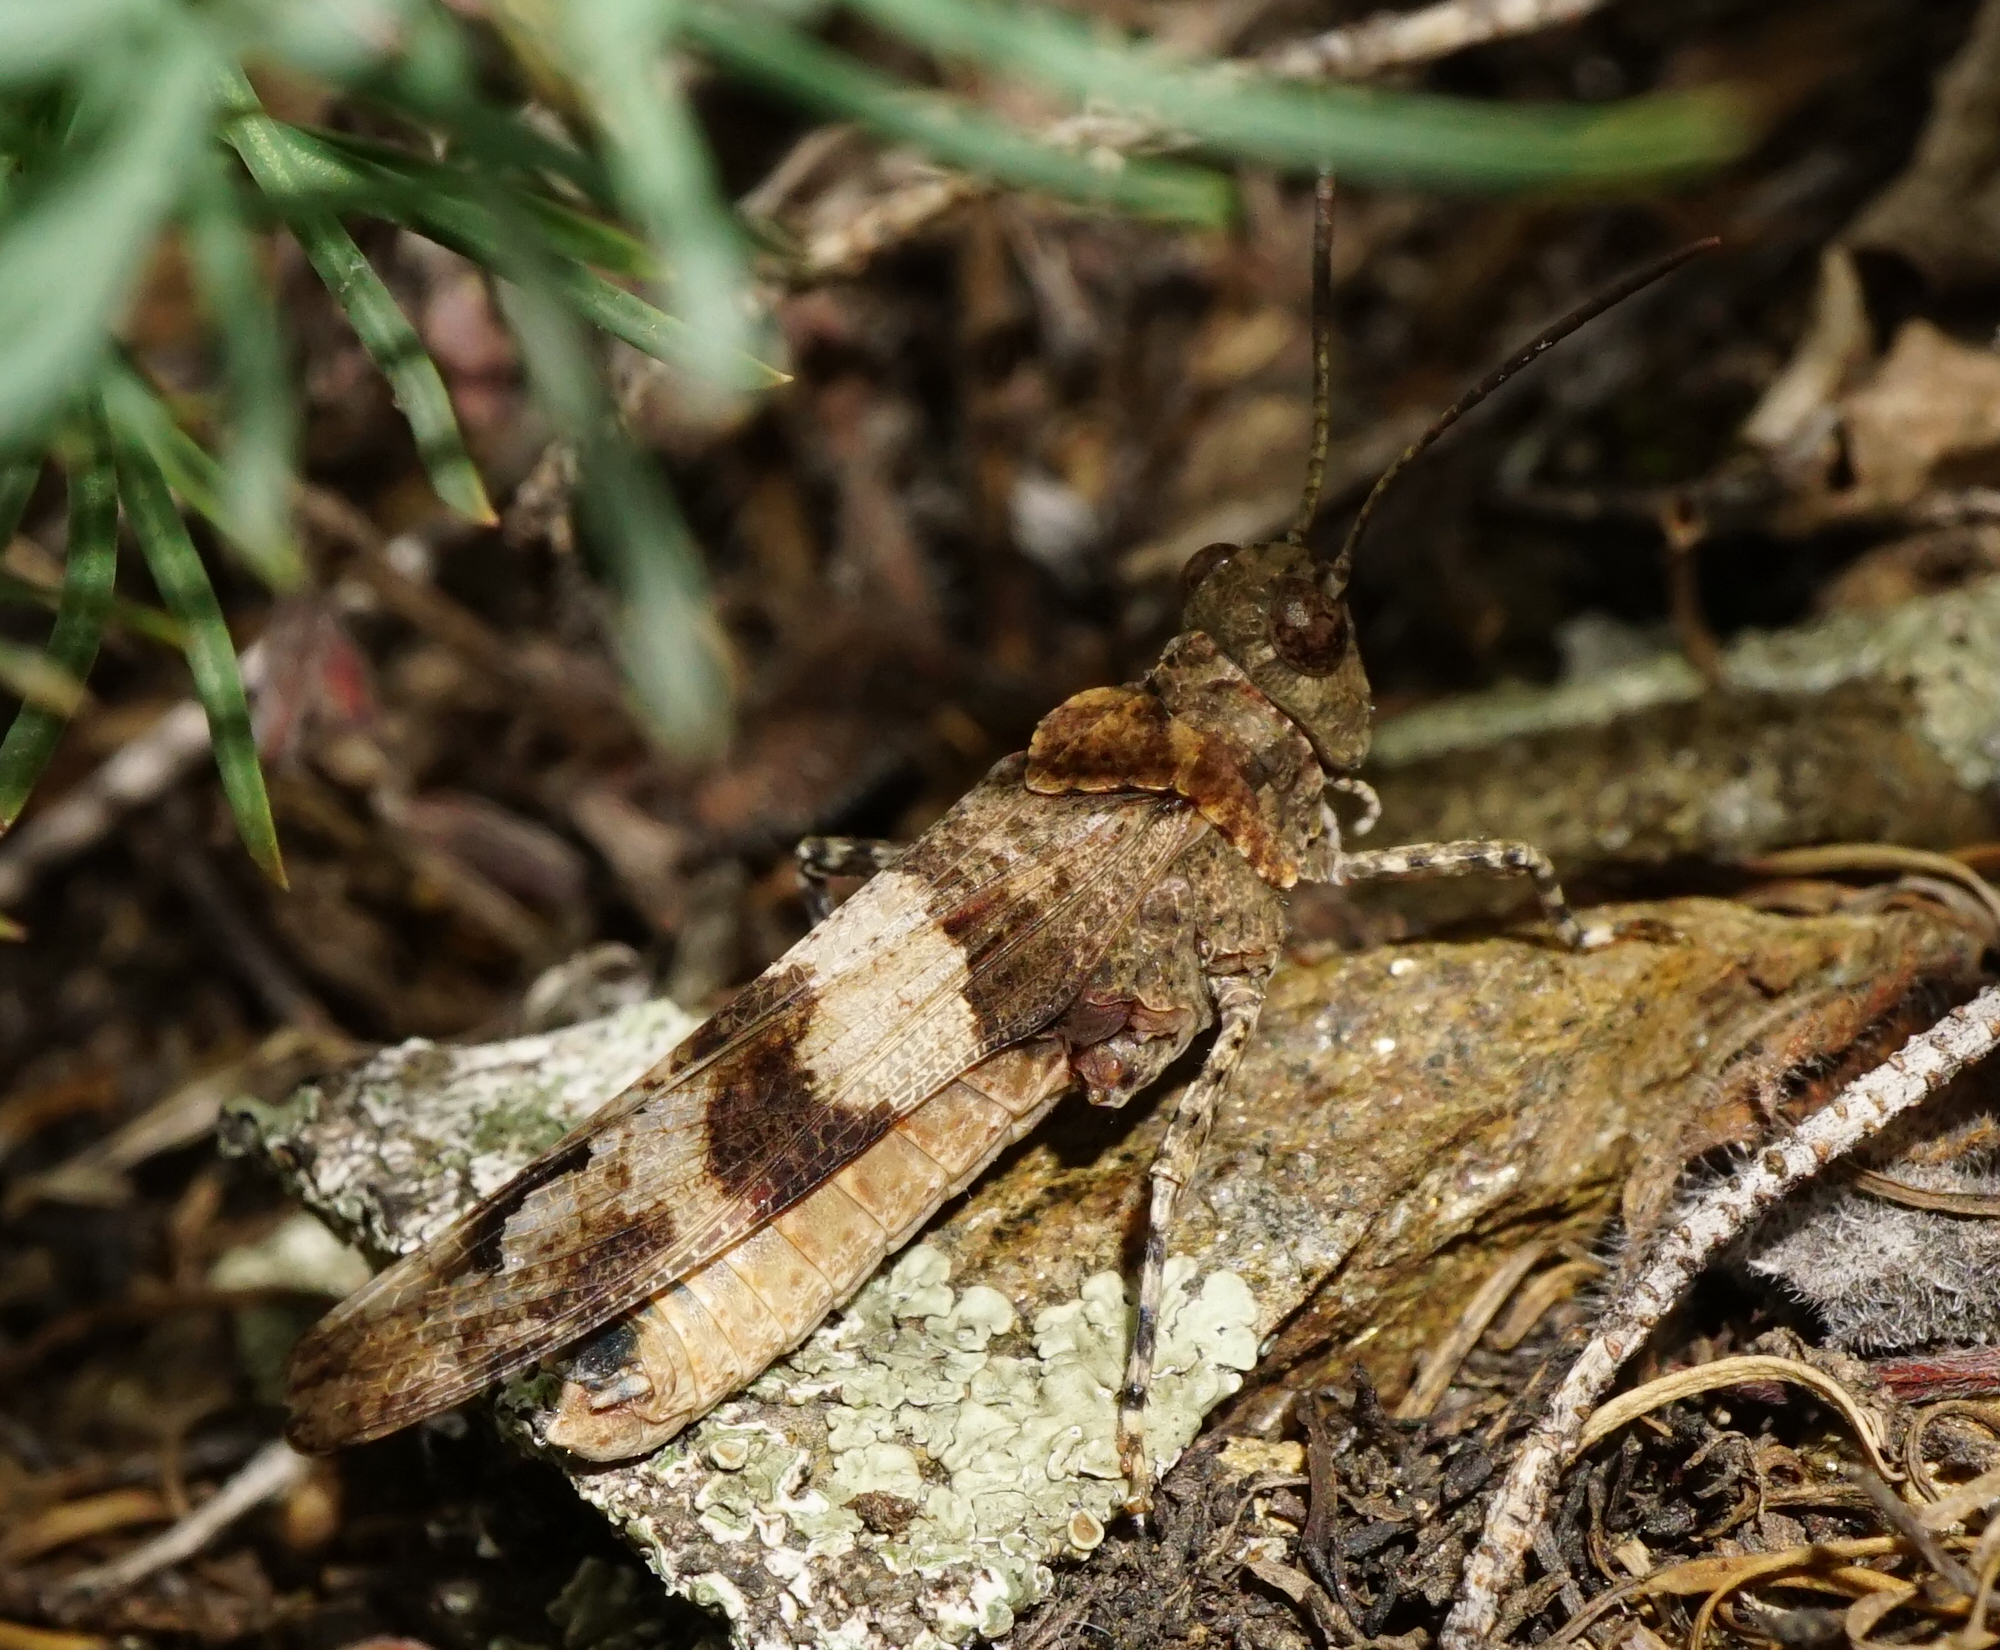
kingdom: Animalia
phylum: Arthropoda
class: Insecta
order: Orthoptera
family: Acrididae
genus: Oedipoda
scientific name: Oedipoda caerulescens
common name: Blue-winged grasshopper
